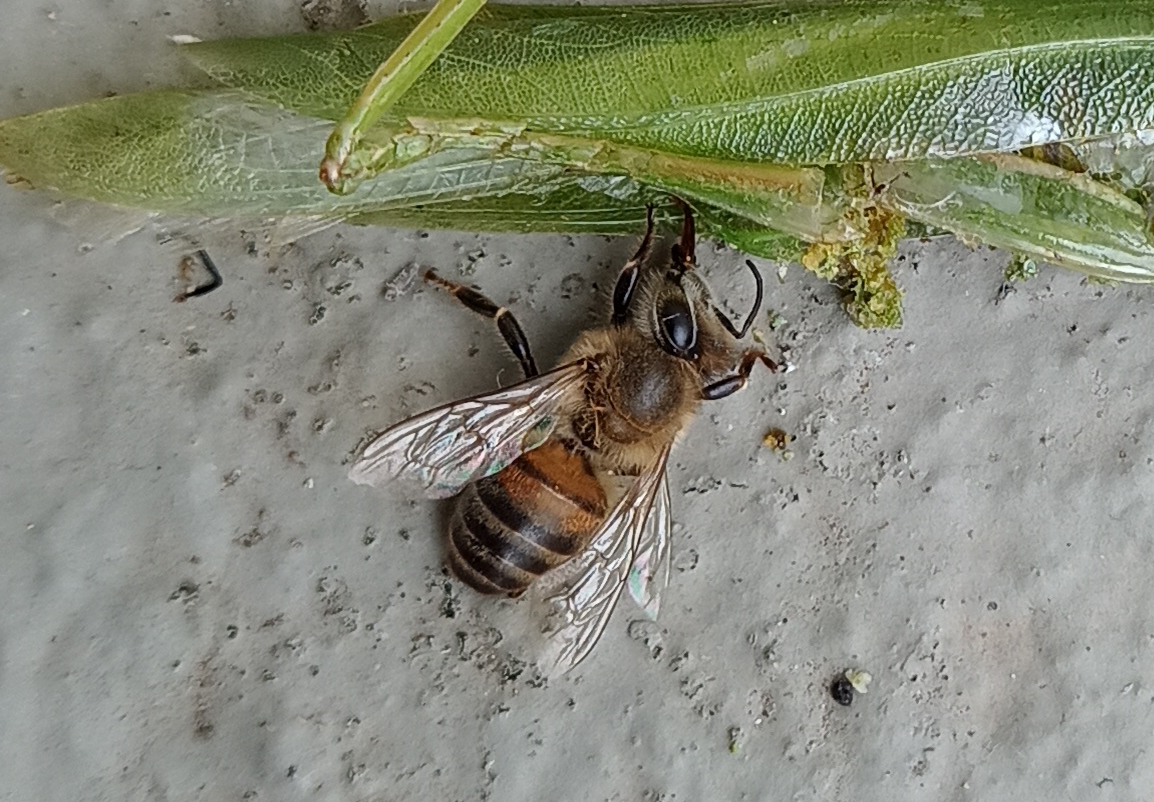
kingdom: Animalia
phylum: Arthropoda
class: Insecta
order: Hymenoptera
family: Apidae
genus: Apis
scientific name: Apis mellifera
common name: Honey bee
